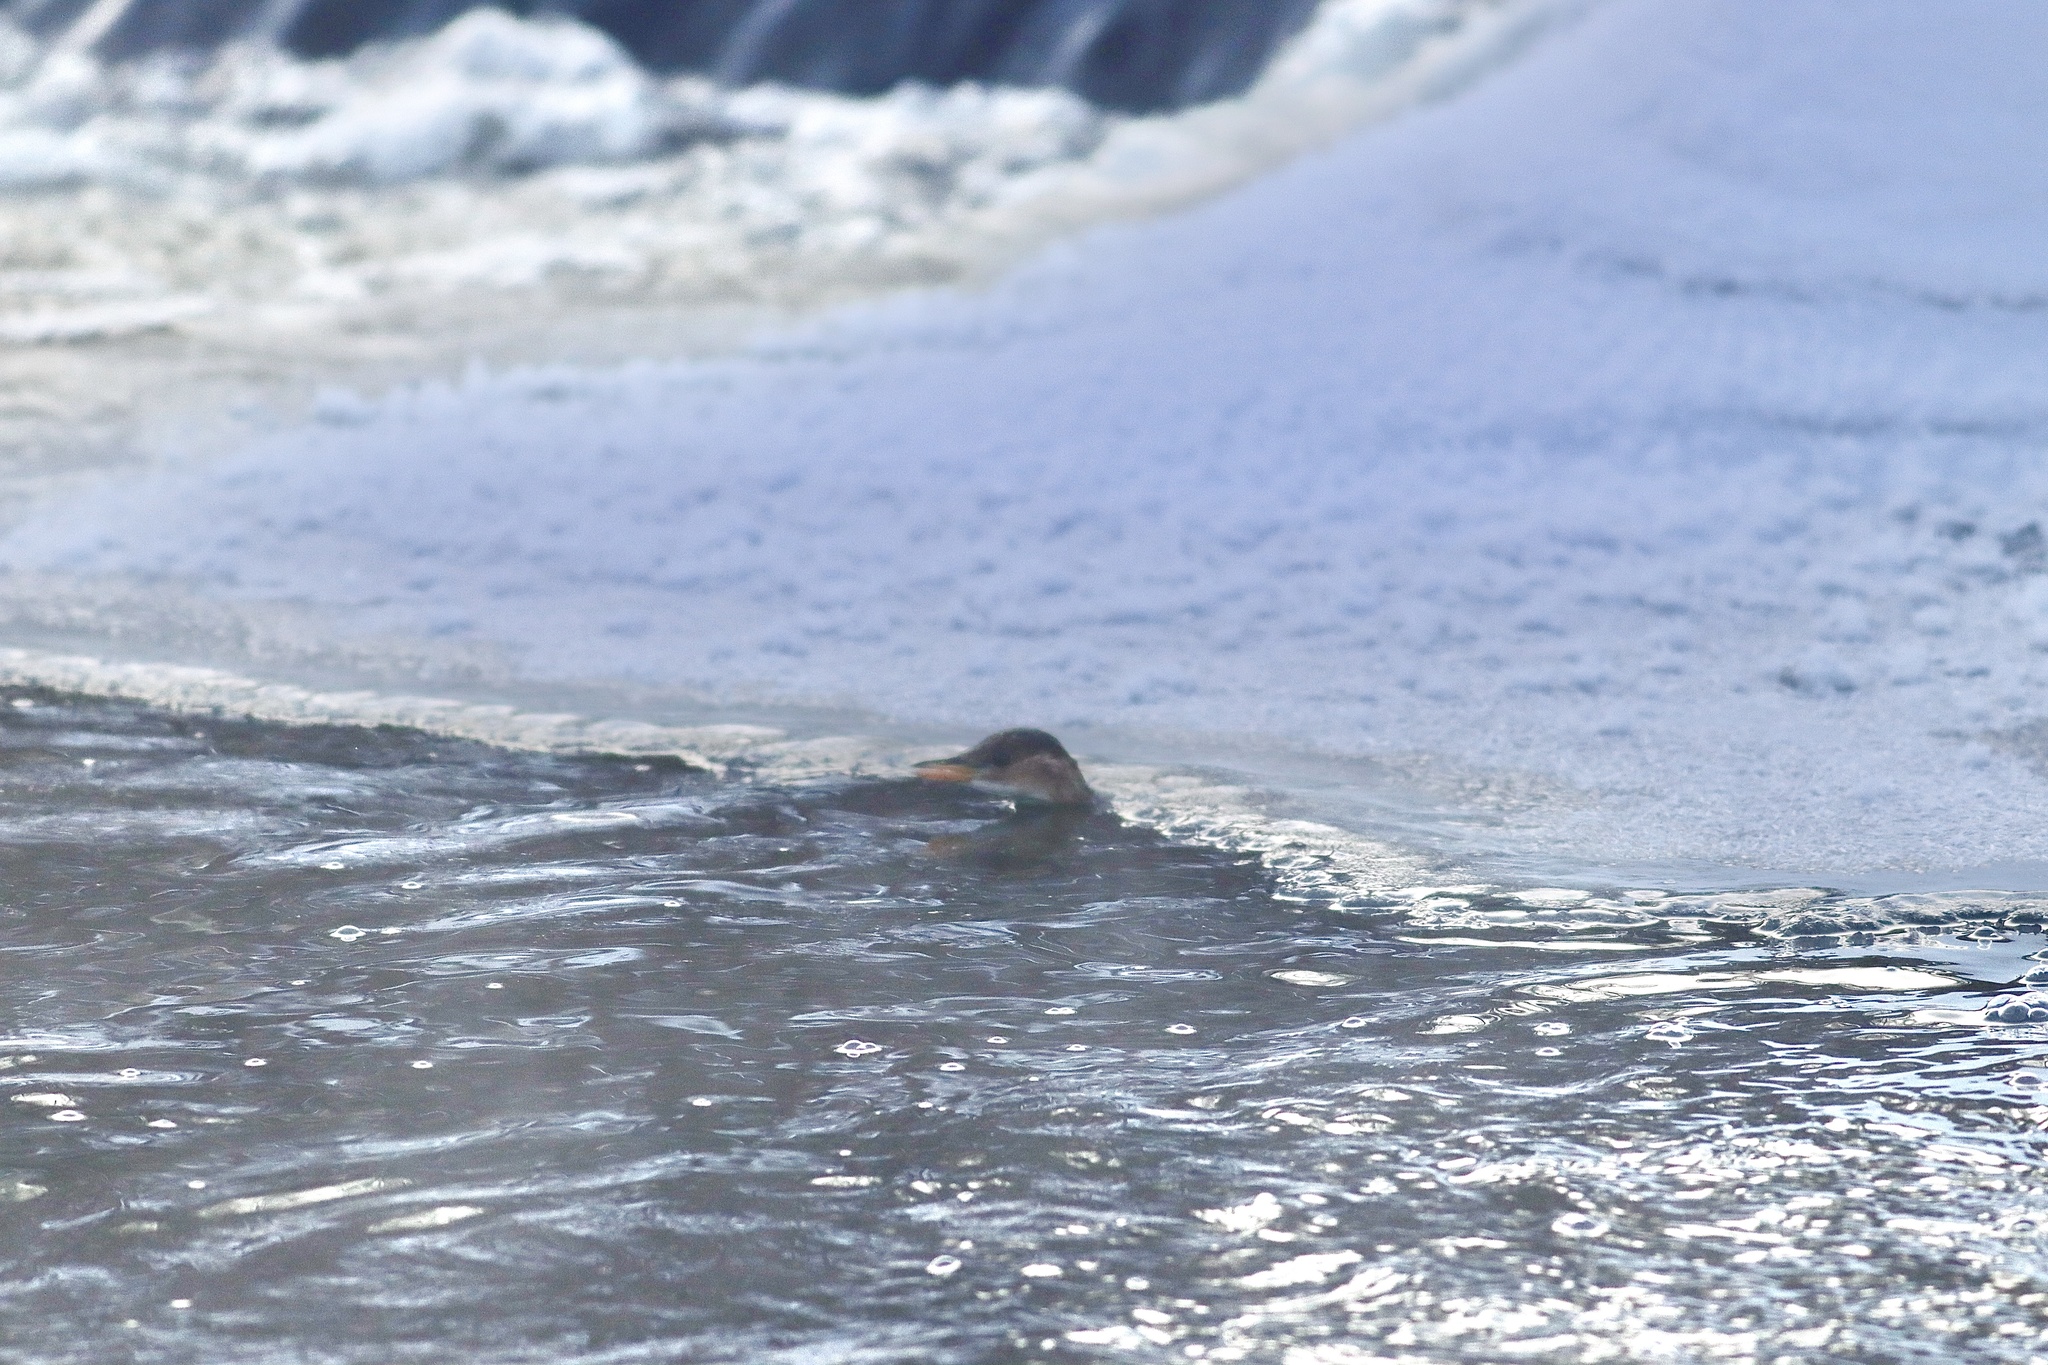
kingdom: Animalia
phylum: Chordata
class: Aves
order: Podicipediformes
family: Podicipedidae
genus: Tachybaptus
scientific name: Tachybaptus ruficollis
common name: Little grebe
